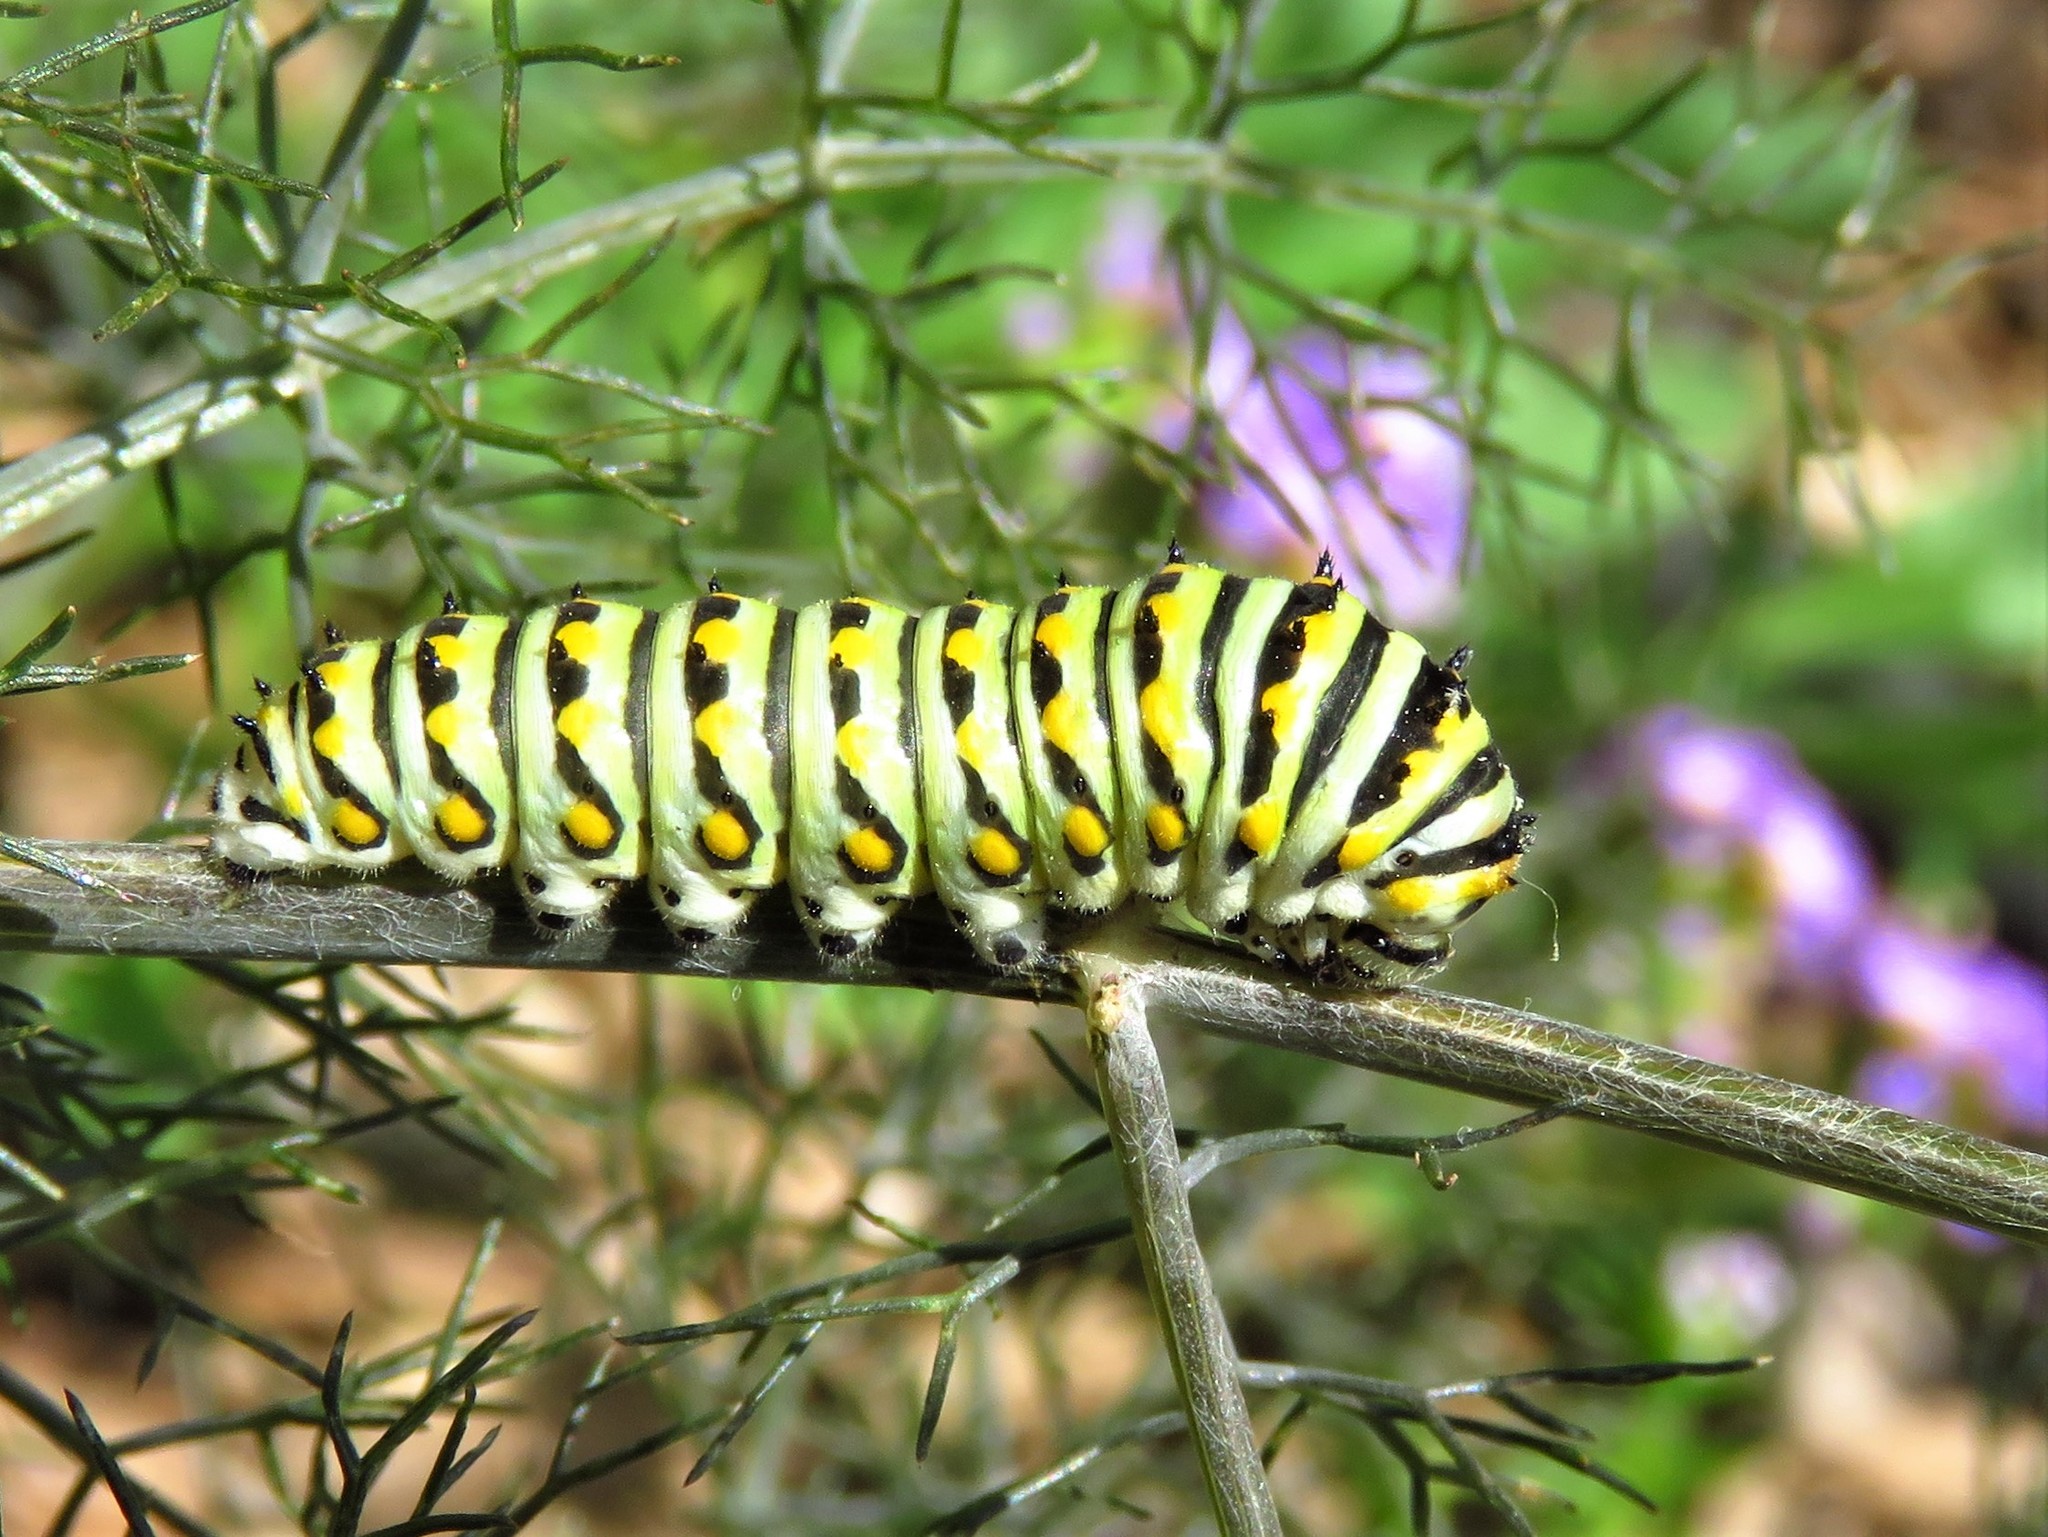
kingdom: Animalia
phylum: Arthropoda
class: Insecta
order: Lepidoptera
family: Papilionidae
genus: Papilio
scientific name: Papilio polyxenes
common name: Black swallowtail
